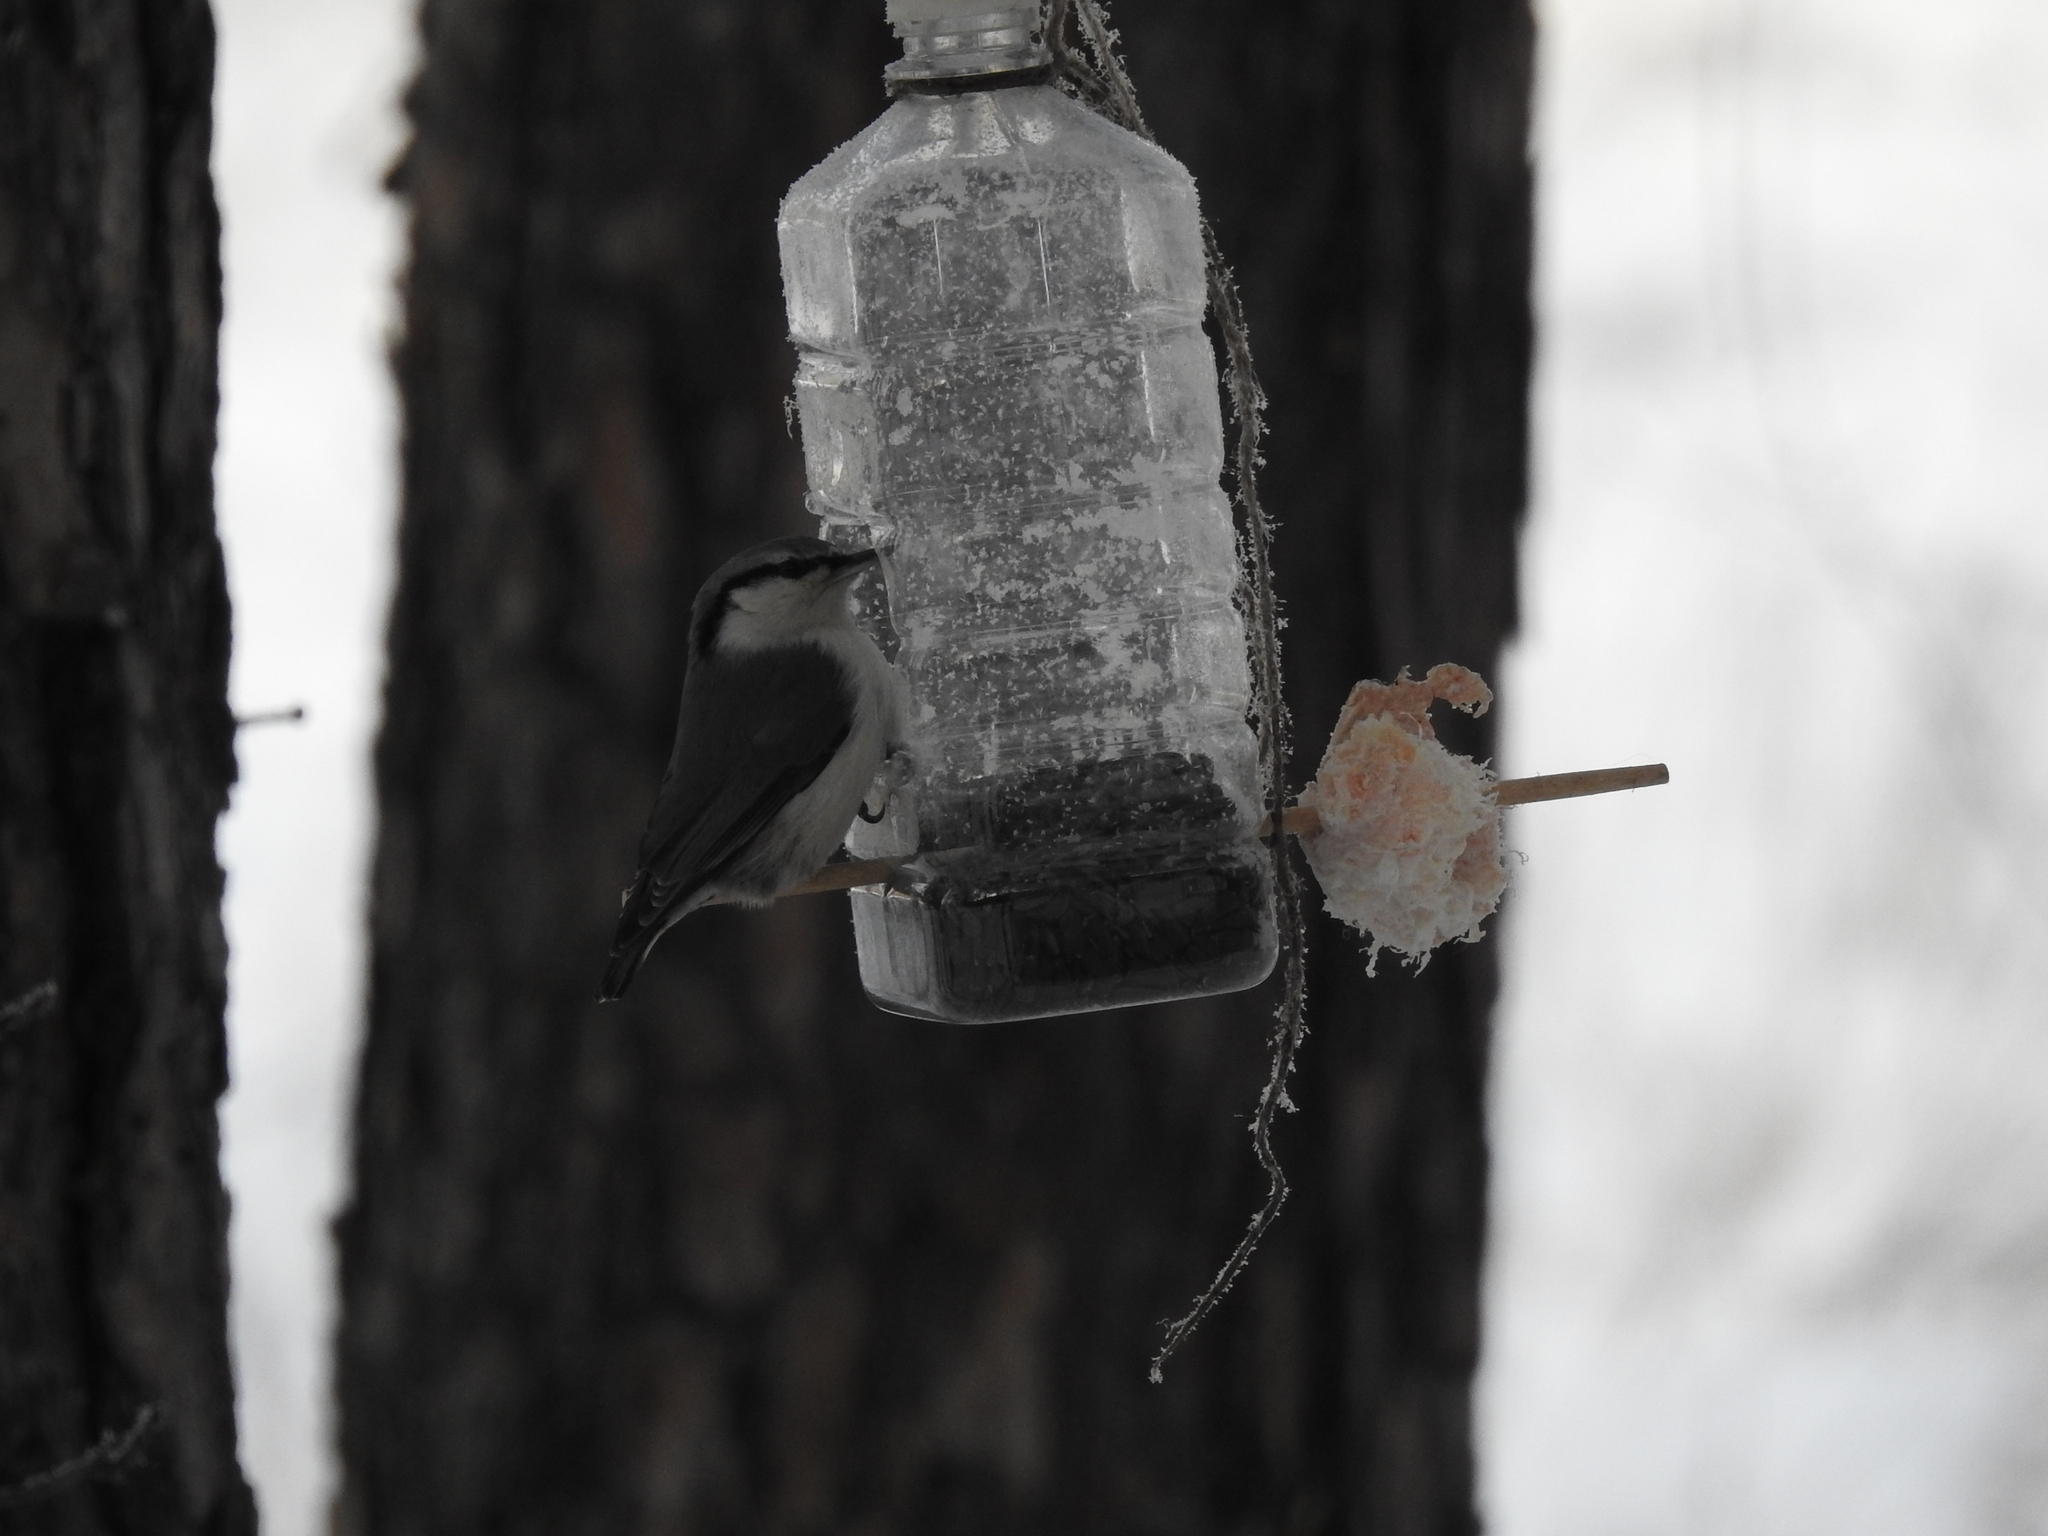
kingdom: Animalia
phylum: Chordata
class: Aves
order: Passeriformes
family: Sittidae
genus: Sitta
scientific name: Sitta europaea
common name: Eurasian nuthatch
